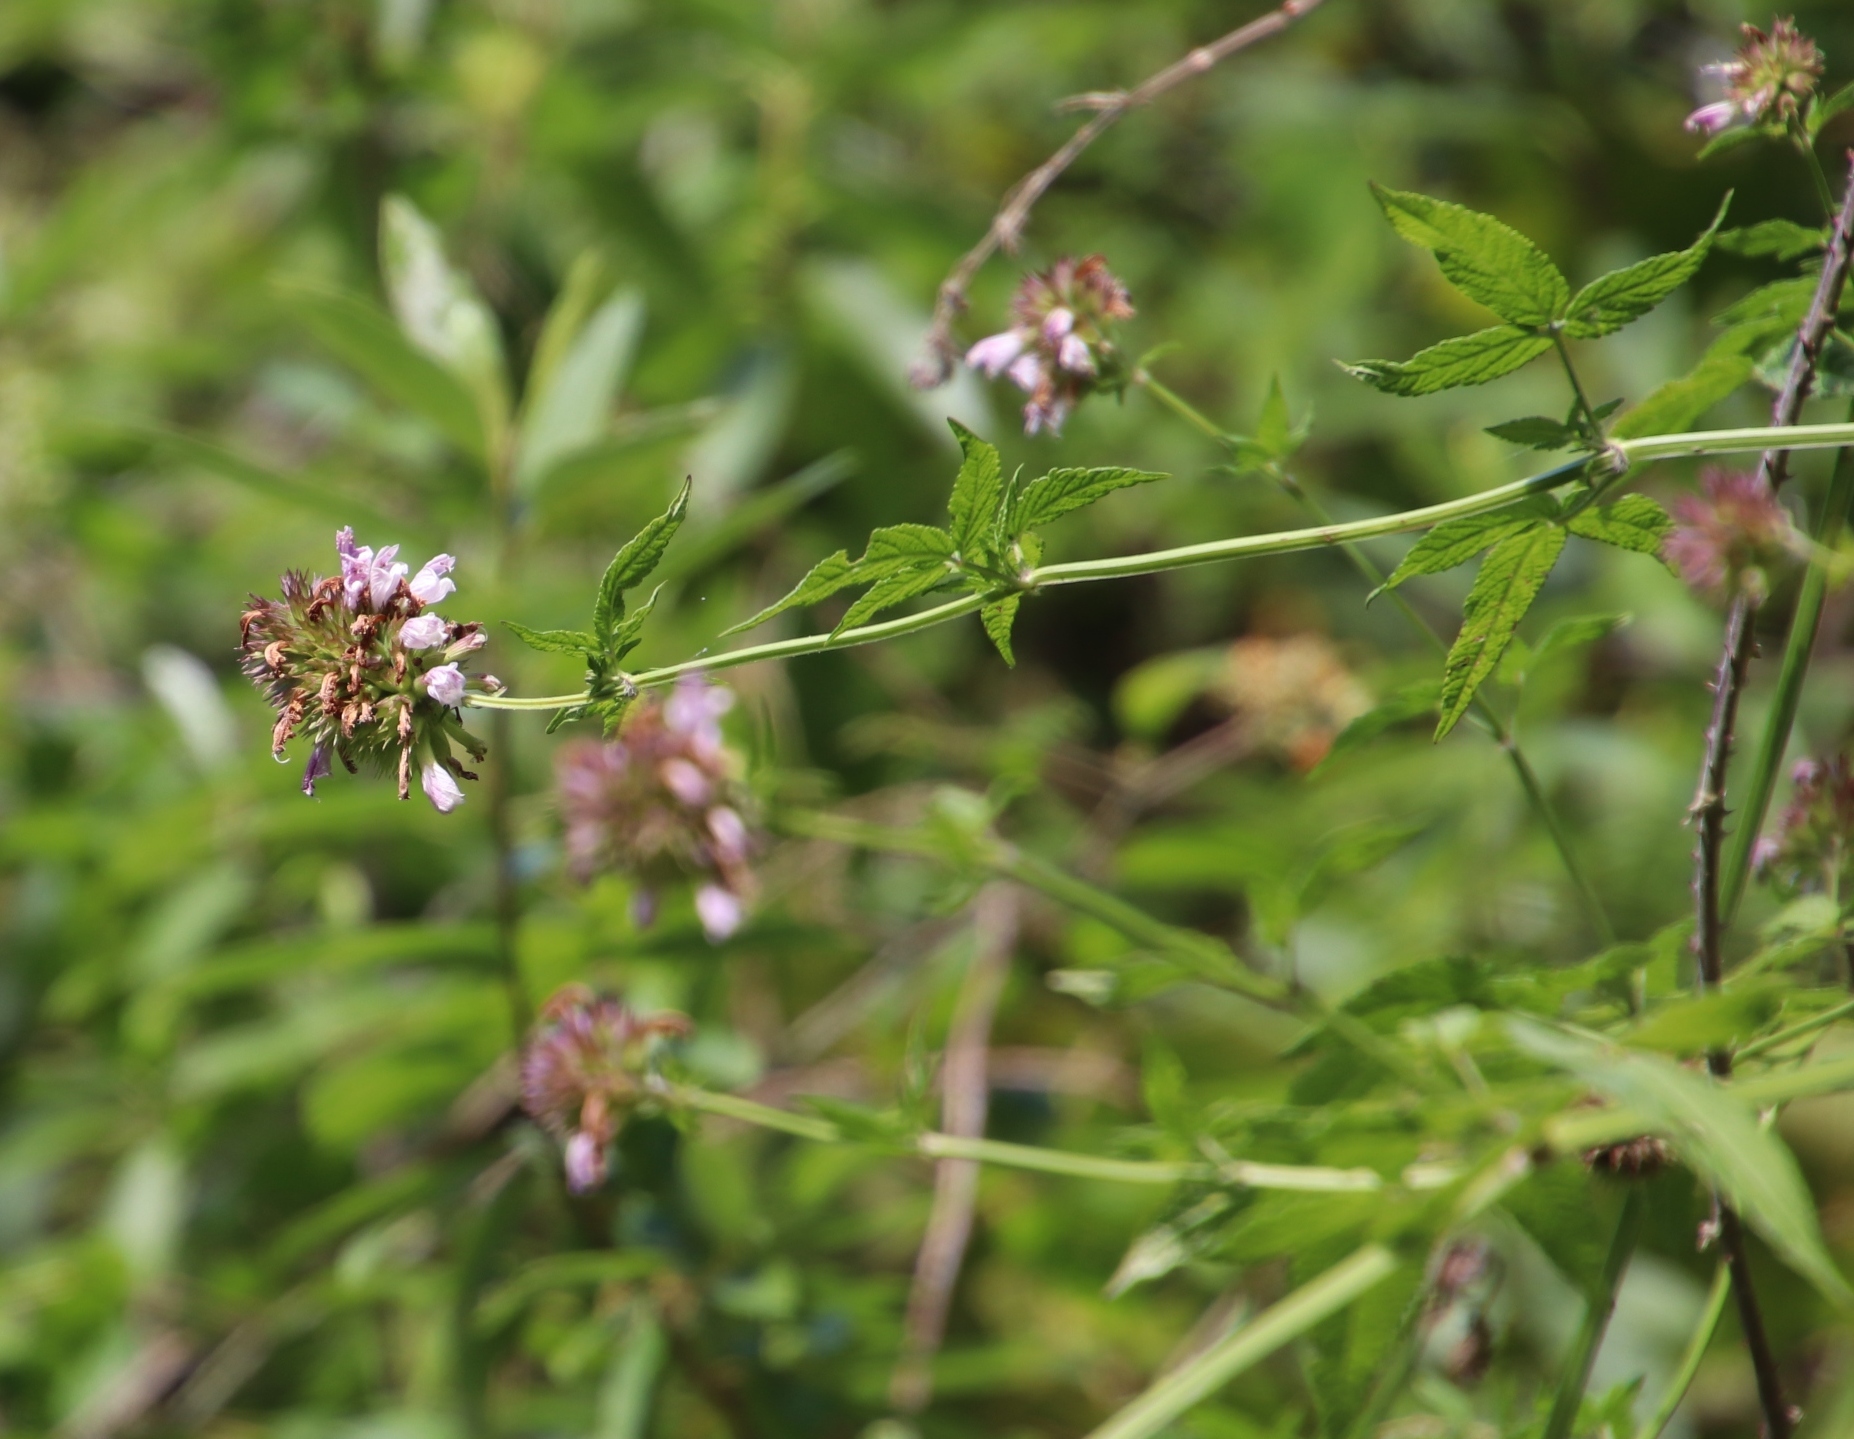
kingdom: Plantae
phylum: Tracheophyta
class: Magnoliopsida
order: Lamiales
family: Lamiaceae
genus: Cedronella
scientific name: Cedronella canariensis
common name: Canary islands balm
